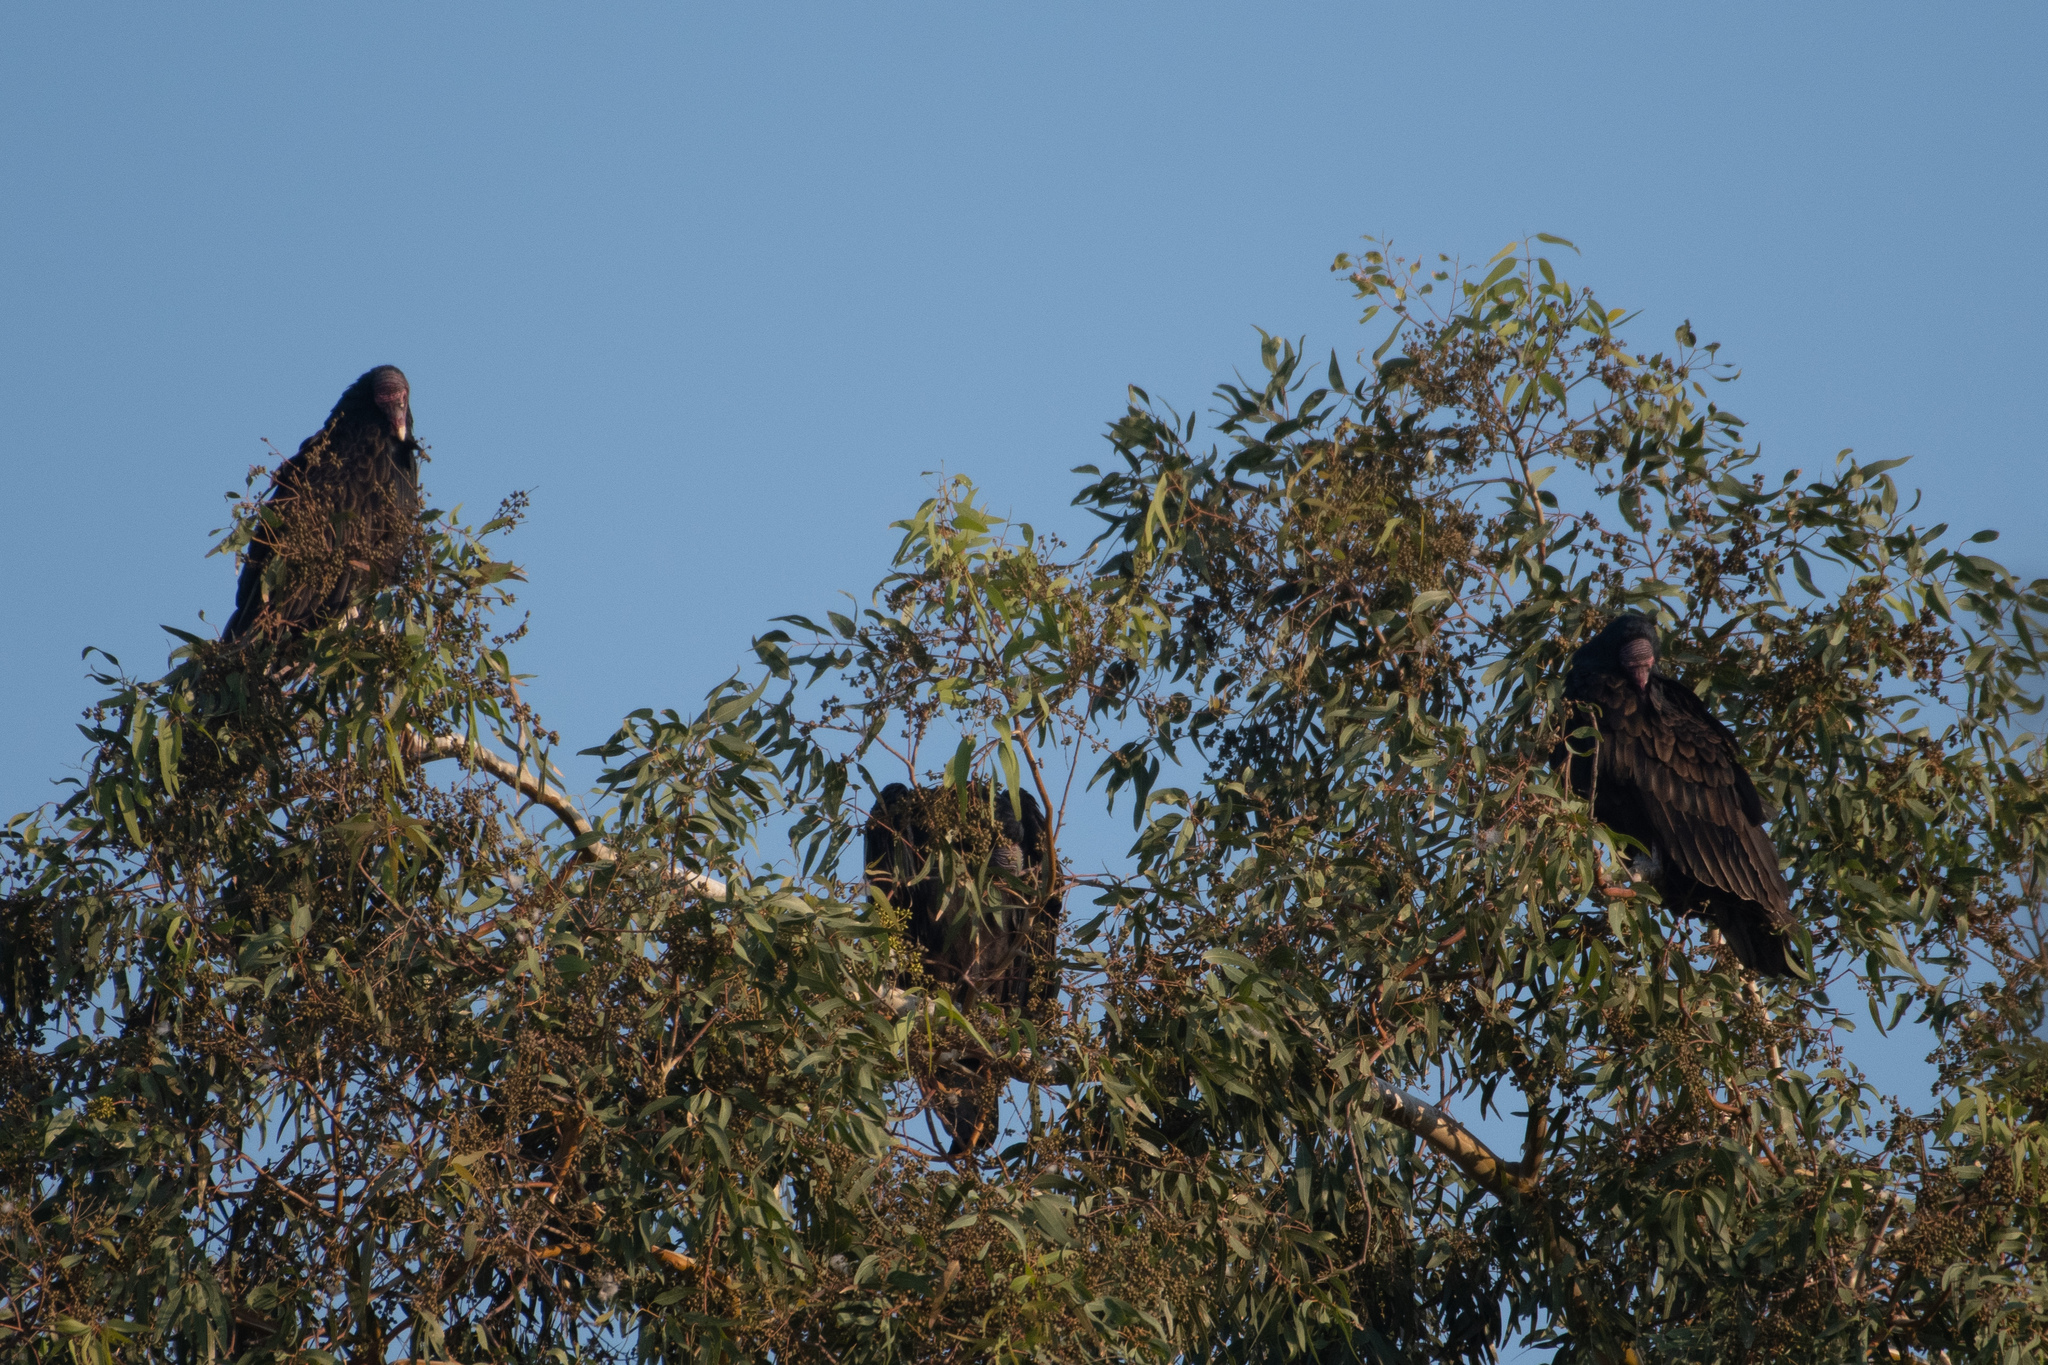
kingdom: Animalia
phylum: Chordata
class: Aves
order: Accipitriformes
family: Cathartidae
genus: Cathartes
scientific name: Cathartes aura
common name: Turkey vulture
